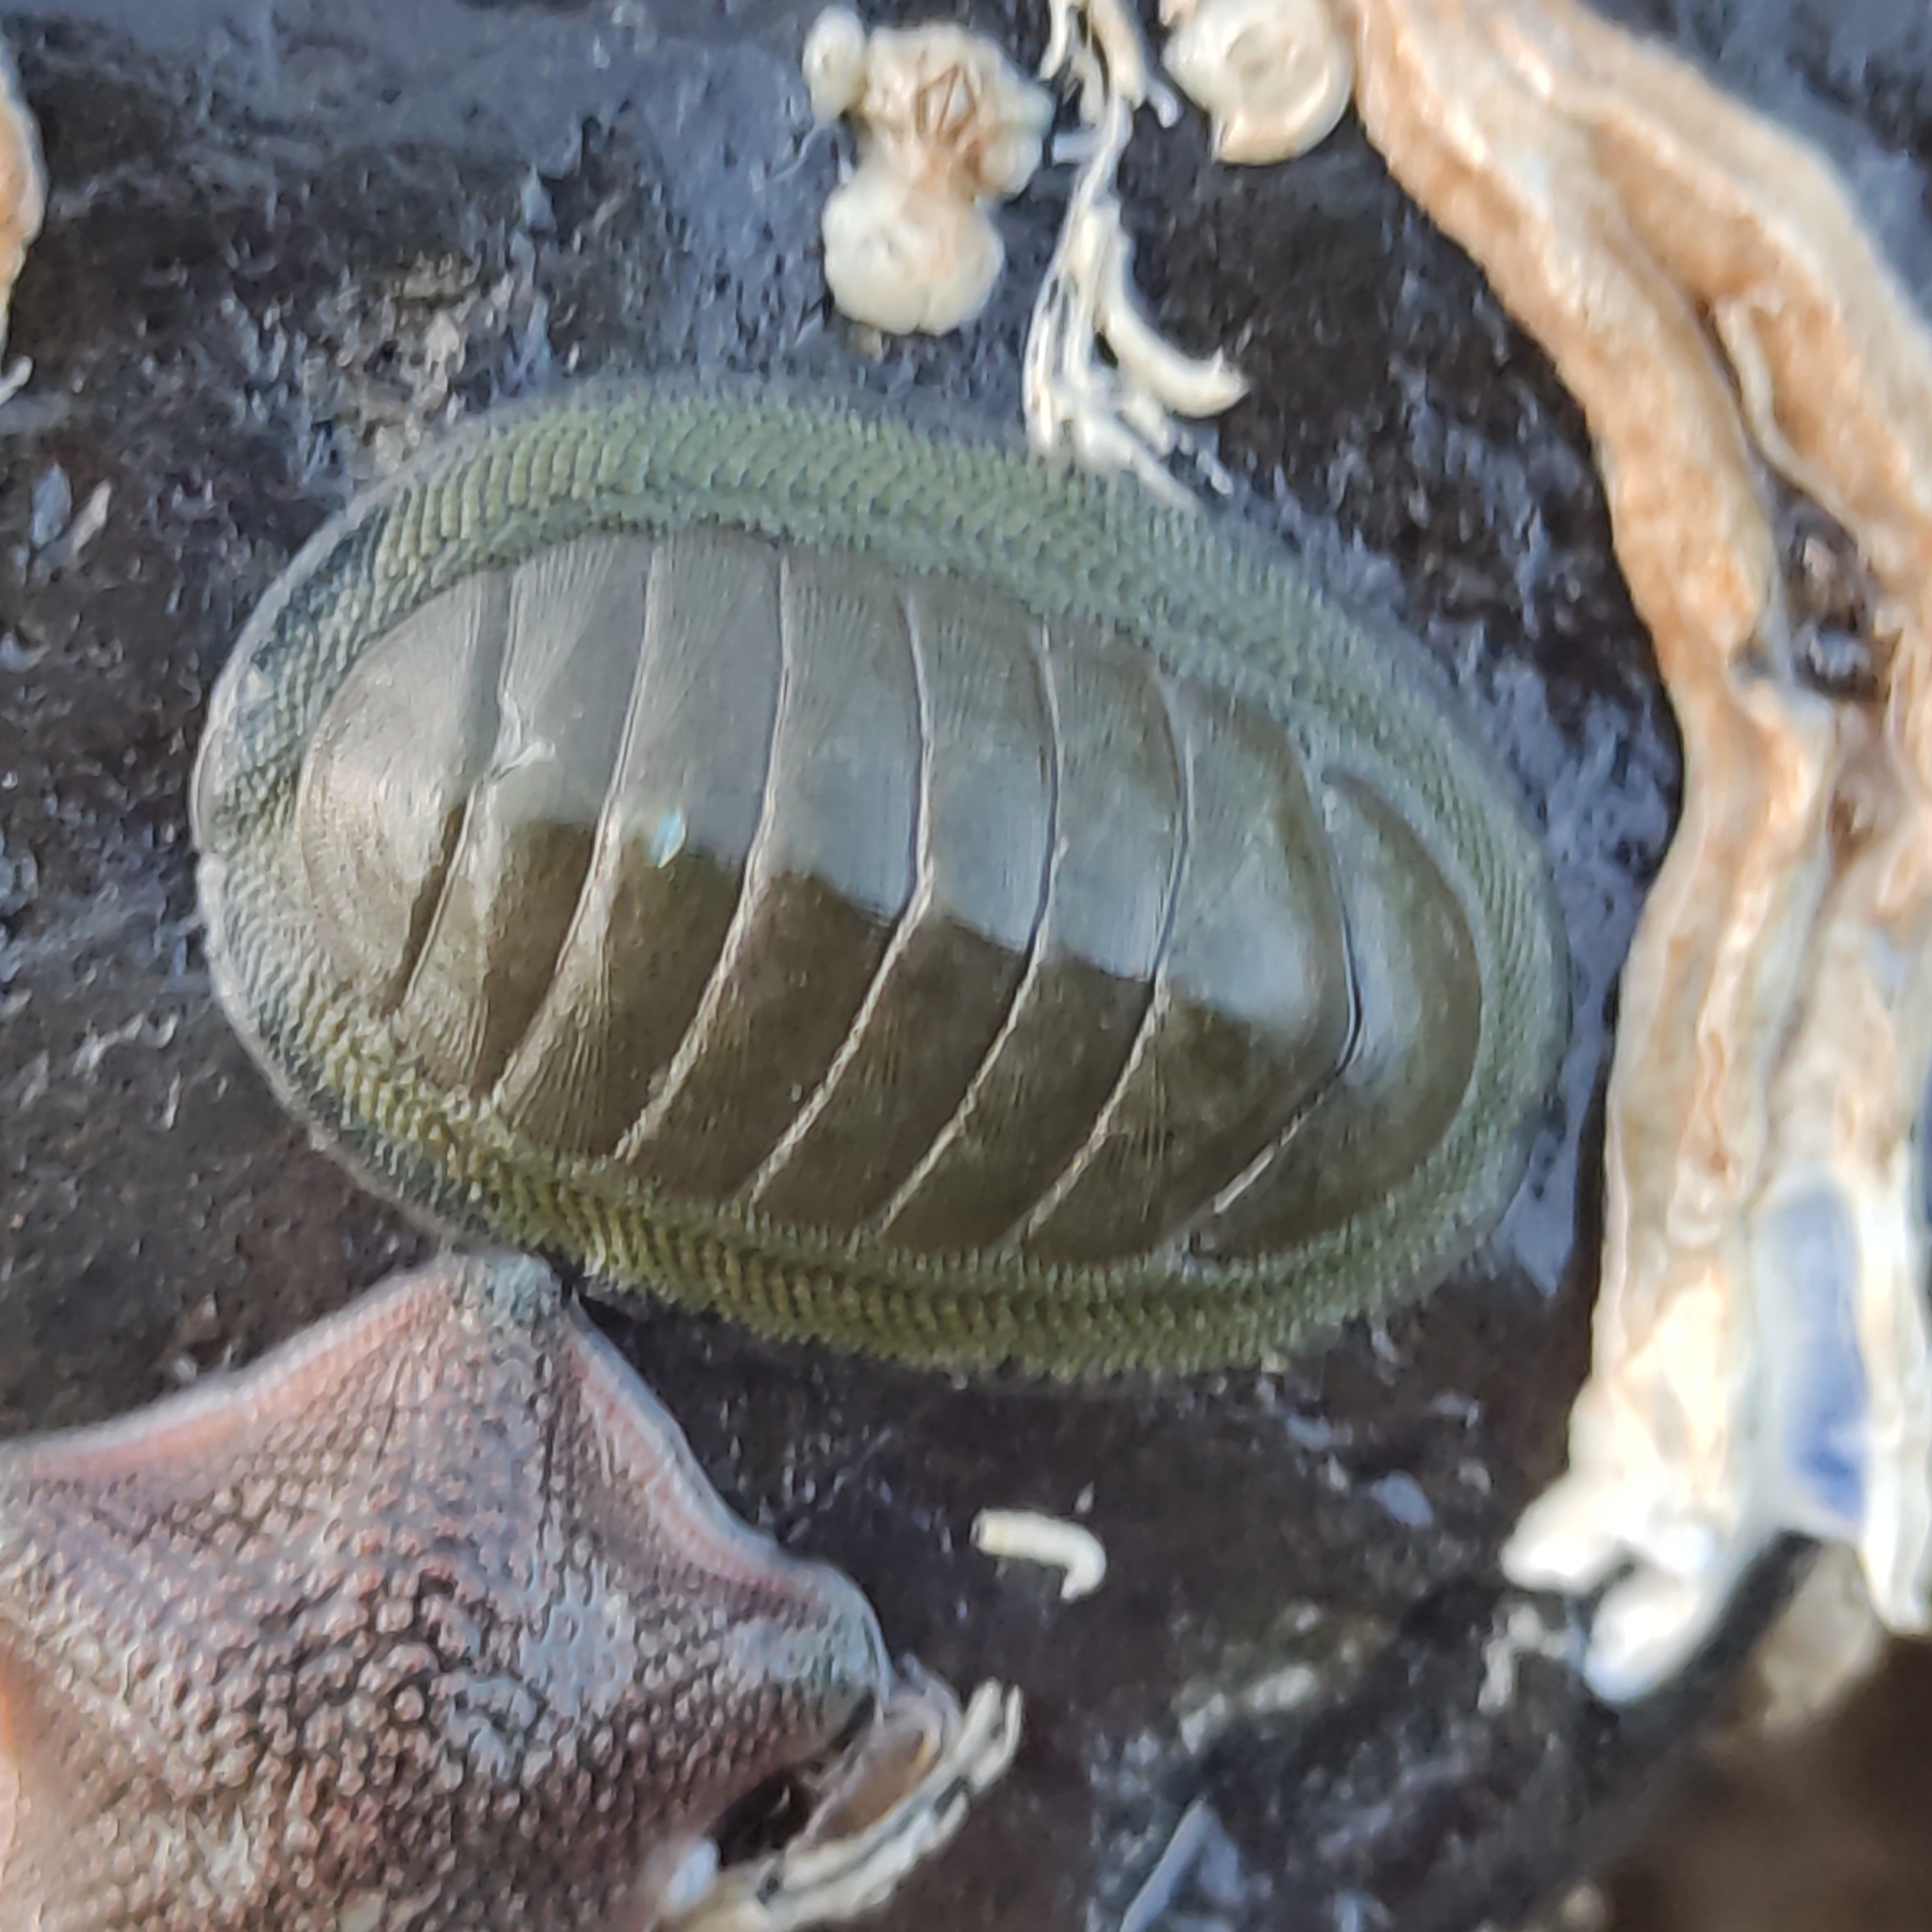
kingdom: Animalia
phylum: Mollusca
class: Polyplacophora
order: Chitonida
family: Chitonidae
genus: Chiton
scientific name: Chiton glaucus
